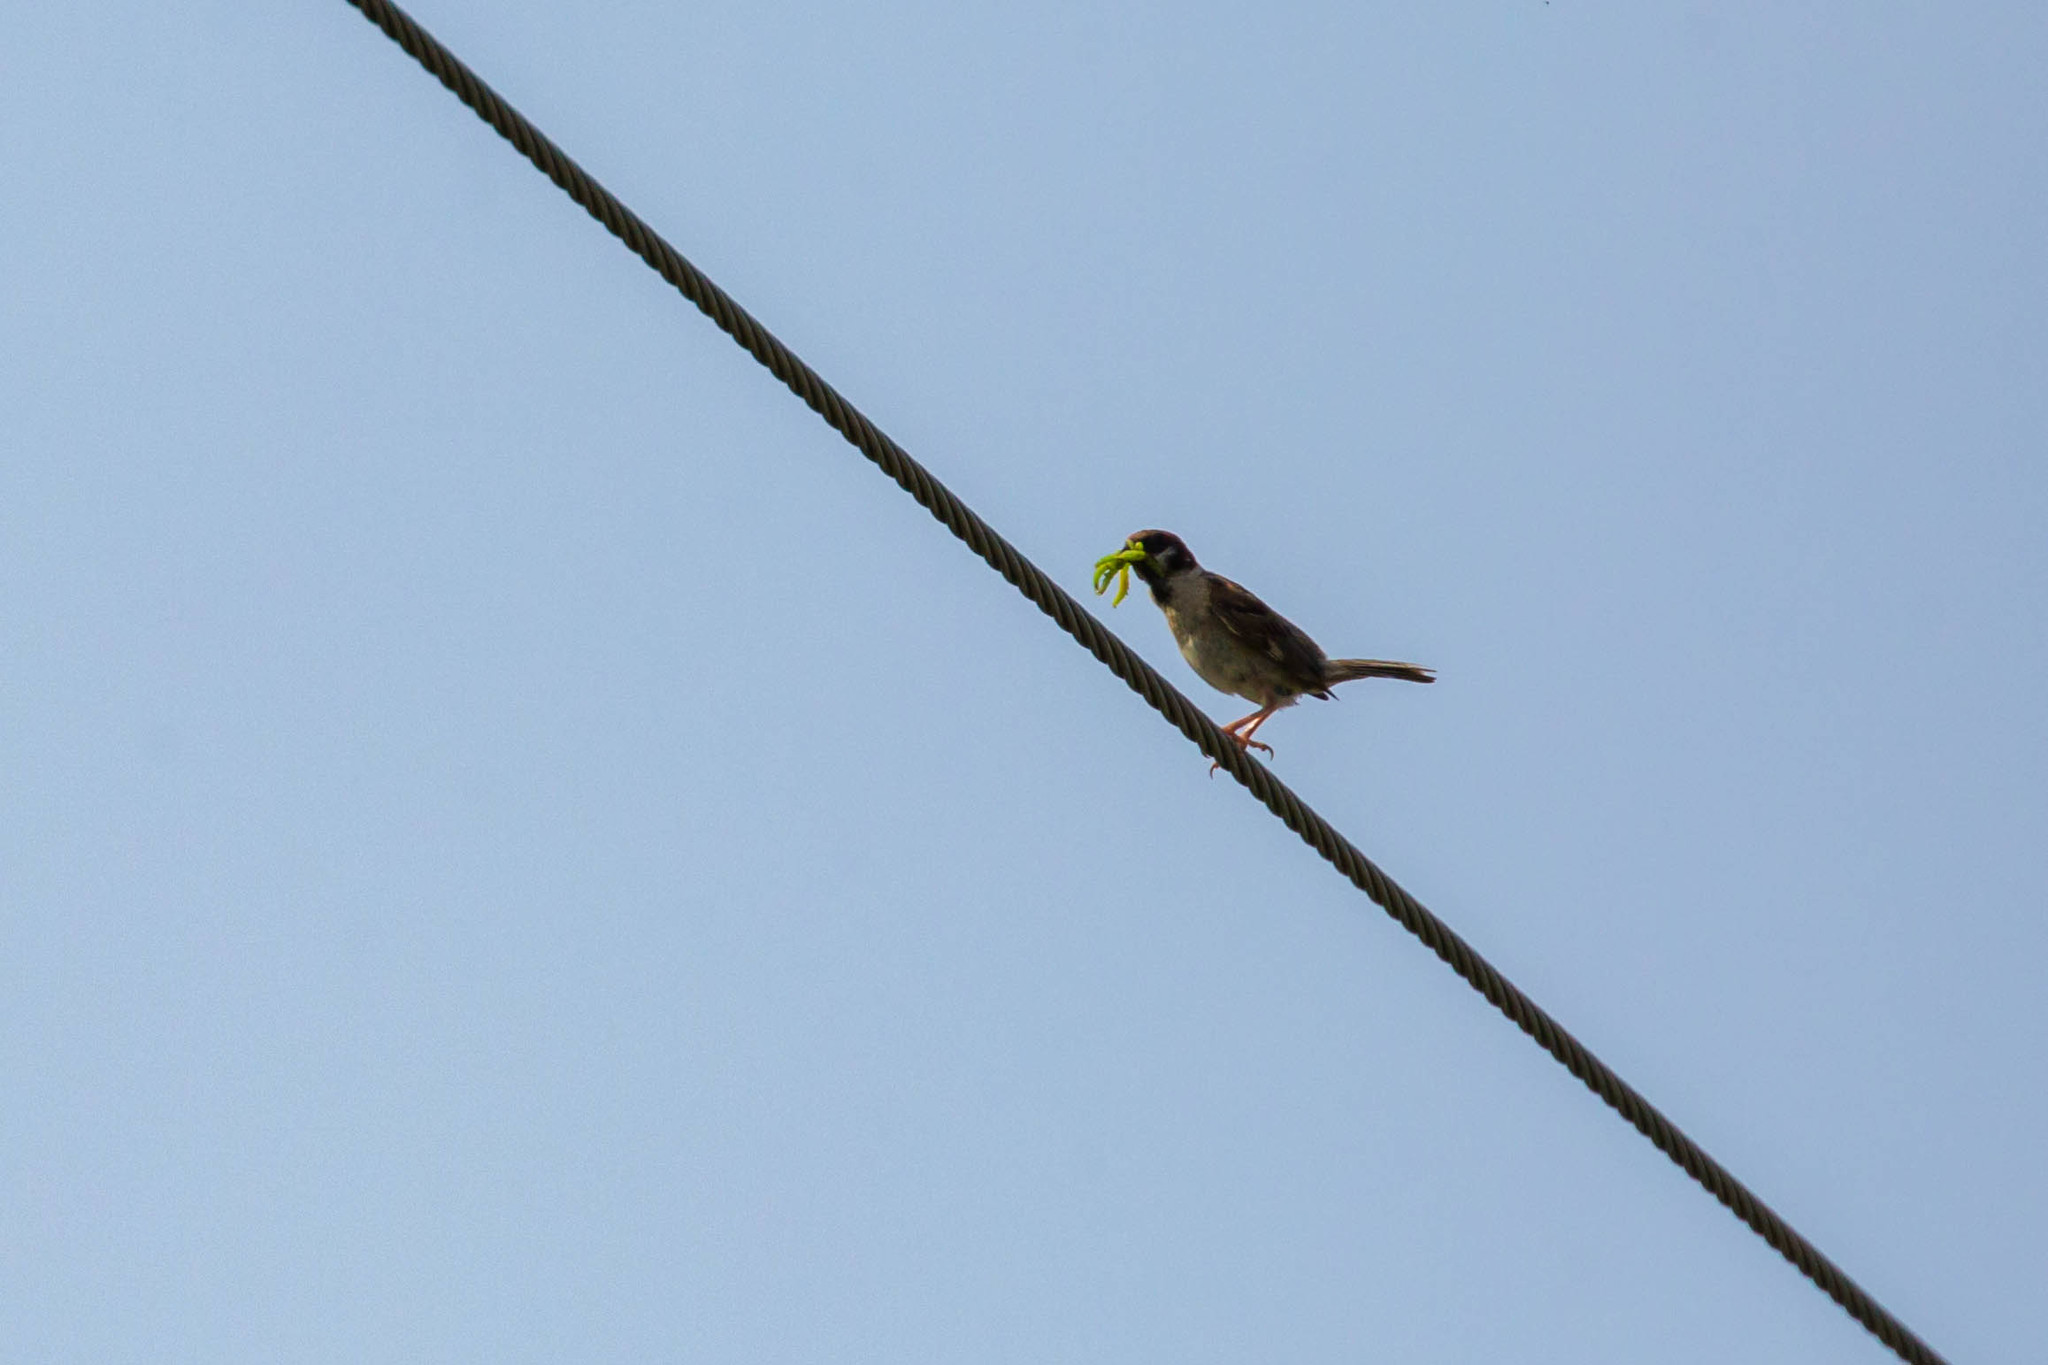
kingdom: Animalia
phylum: Chordata
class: Aves
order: Passeriformes
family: Passeridae
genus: Passer
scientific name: Passer montanus
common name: Eurasian tree sparrow
